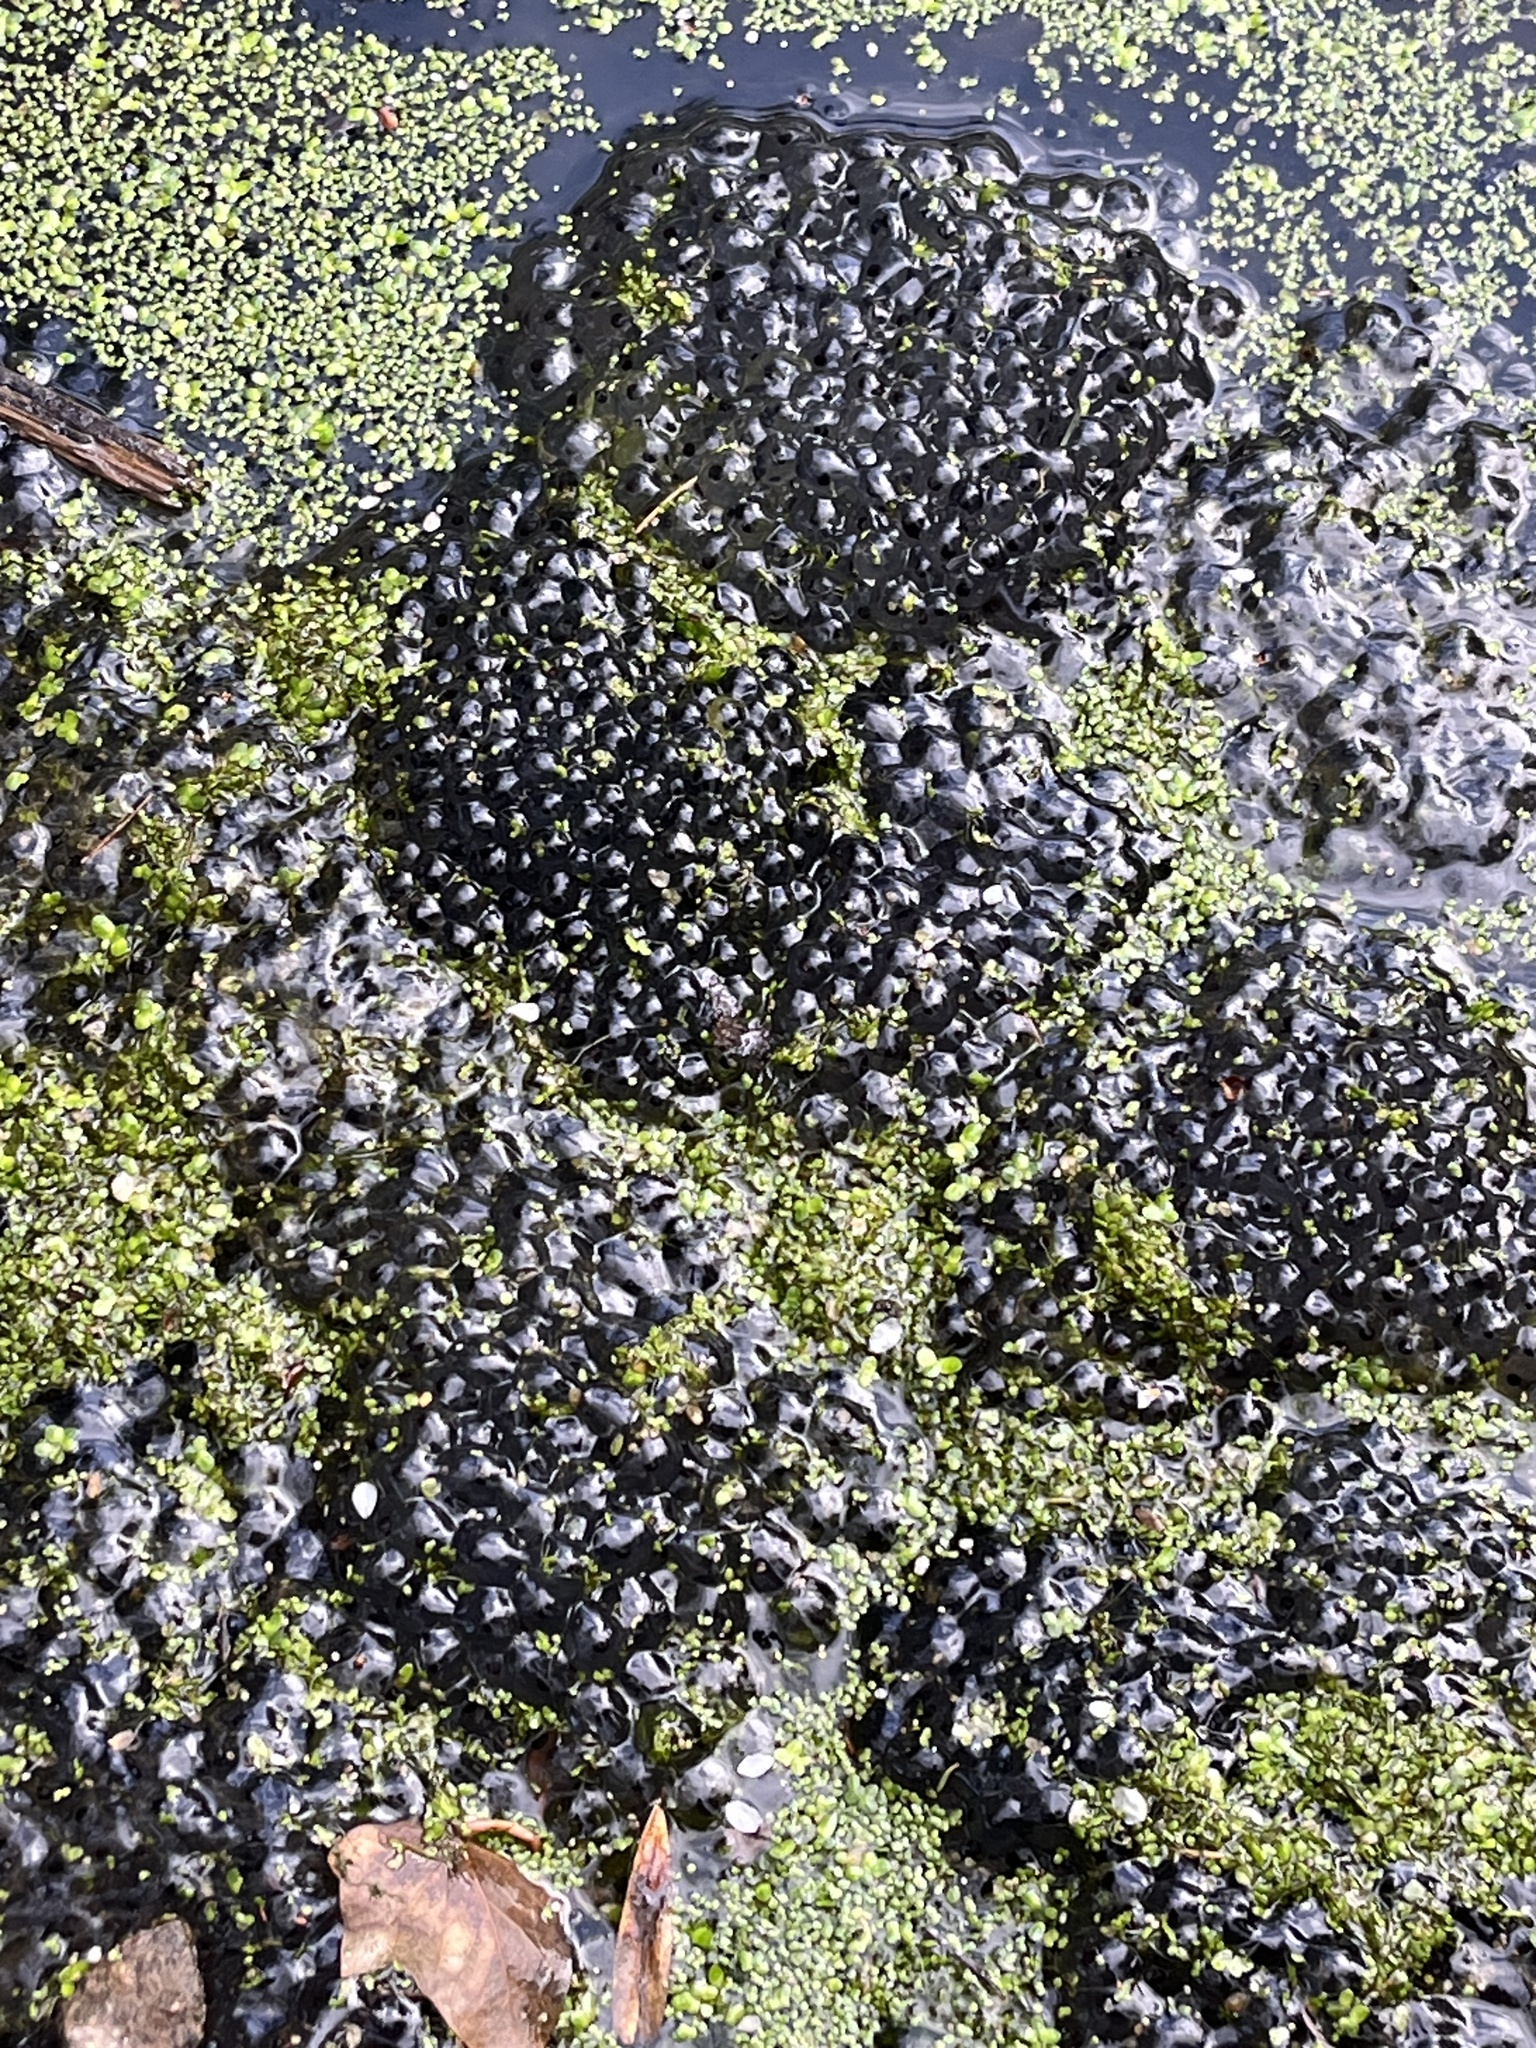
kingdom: Animalia
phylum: Chordata
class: Amphibia
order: Anura
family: Ranidae
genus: Rana
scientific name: Rana temporaria
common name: Common frog
